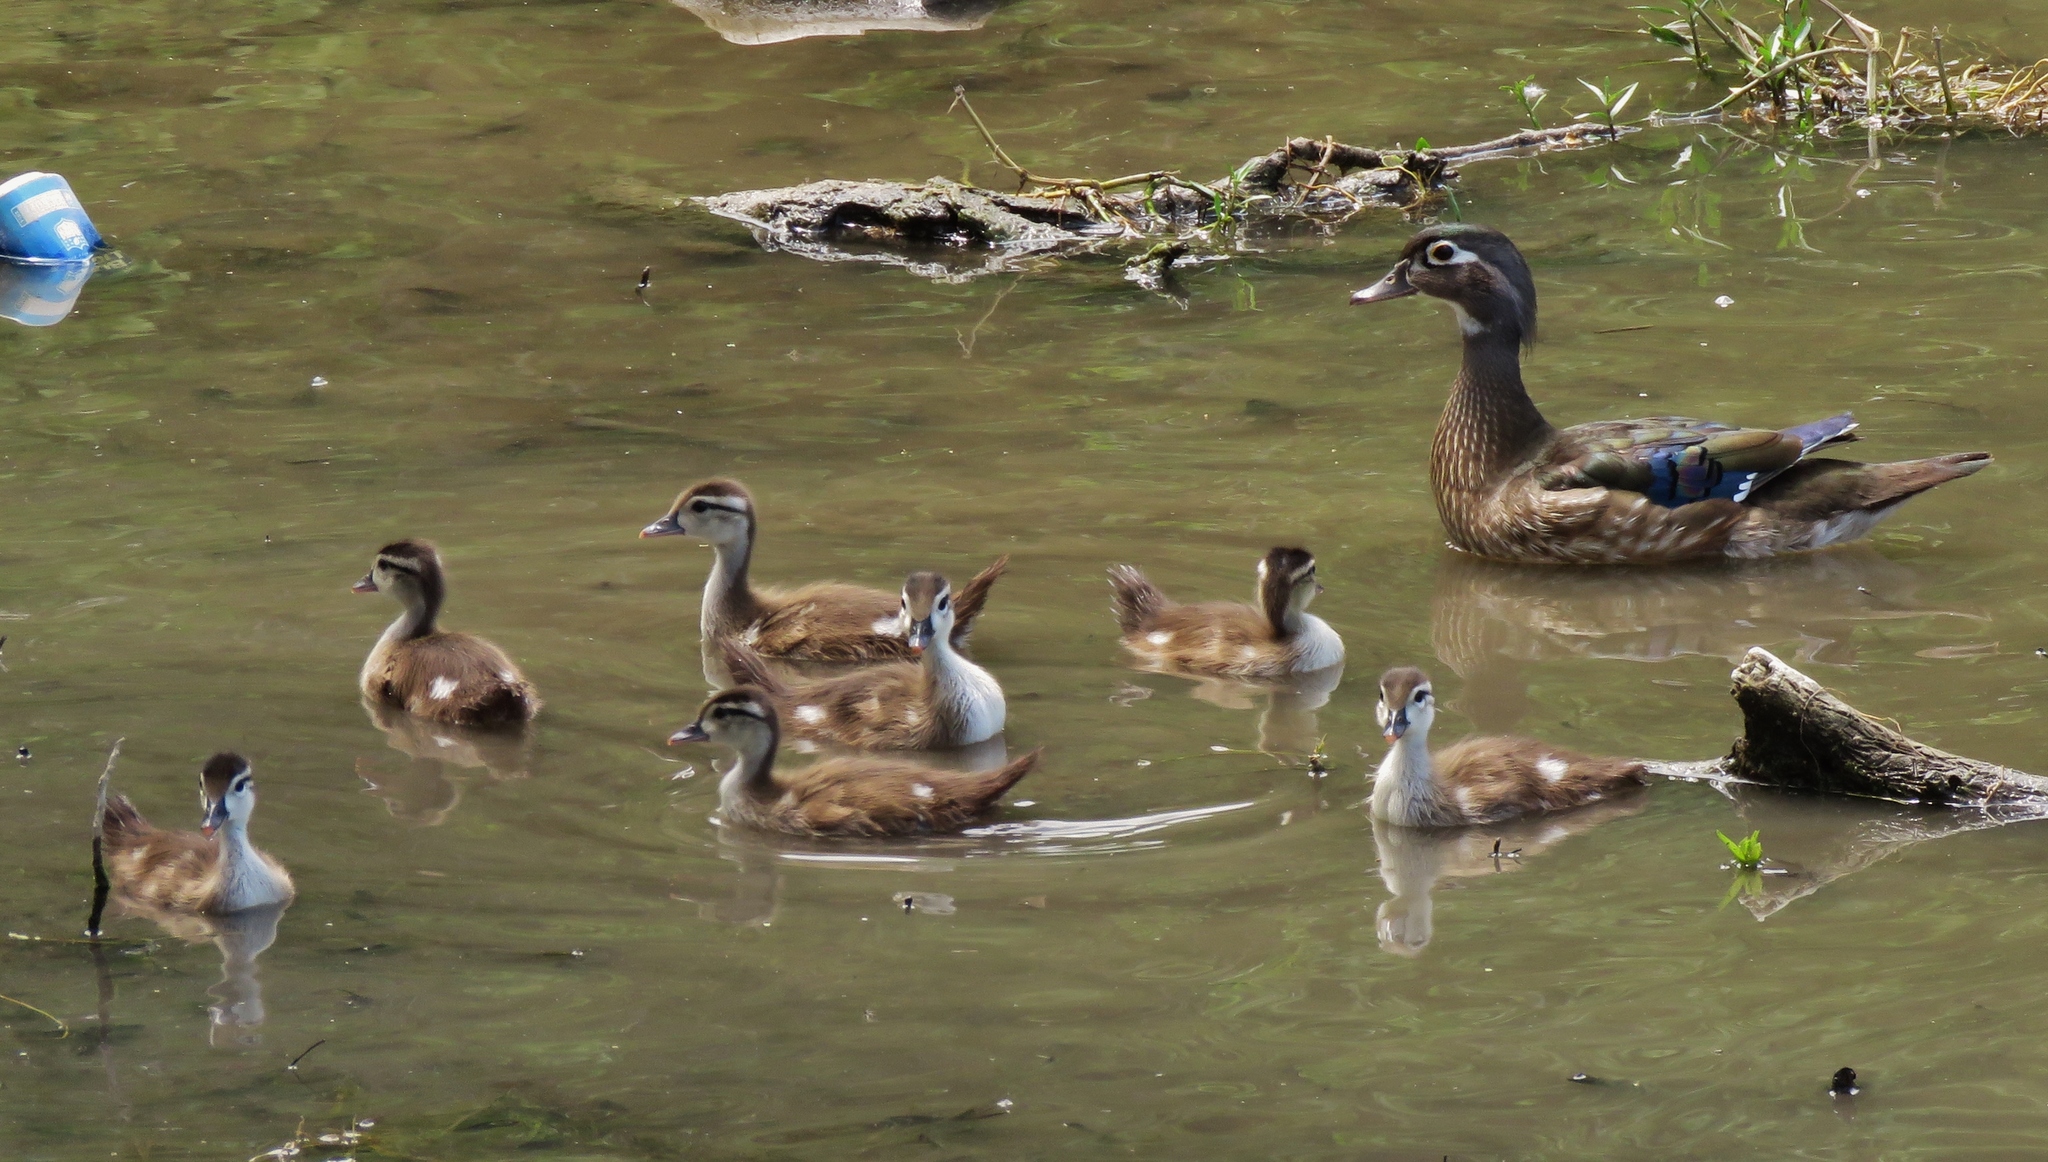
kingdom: Animalia
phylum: Chordata
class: Aves
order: Anseriformes
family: Anatidae
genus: Aix
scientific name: Aix sponsa
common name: Wood duck
